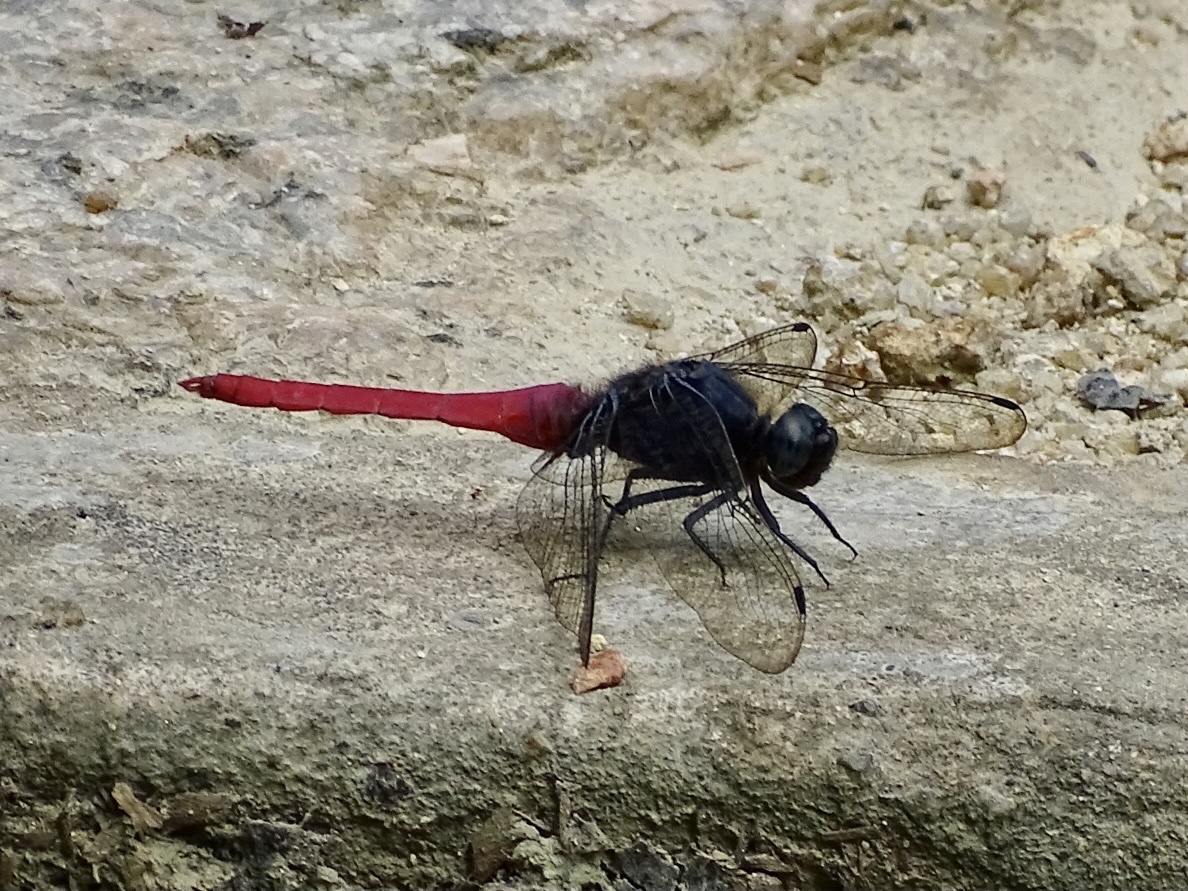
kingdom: Animalia
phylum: Arthropoda
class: Insecta
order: Odonata
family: Libellulidae
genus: Orthetrum
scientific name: Orthetrum pruinosum
